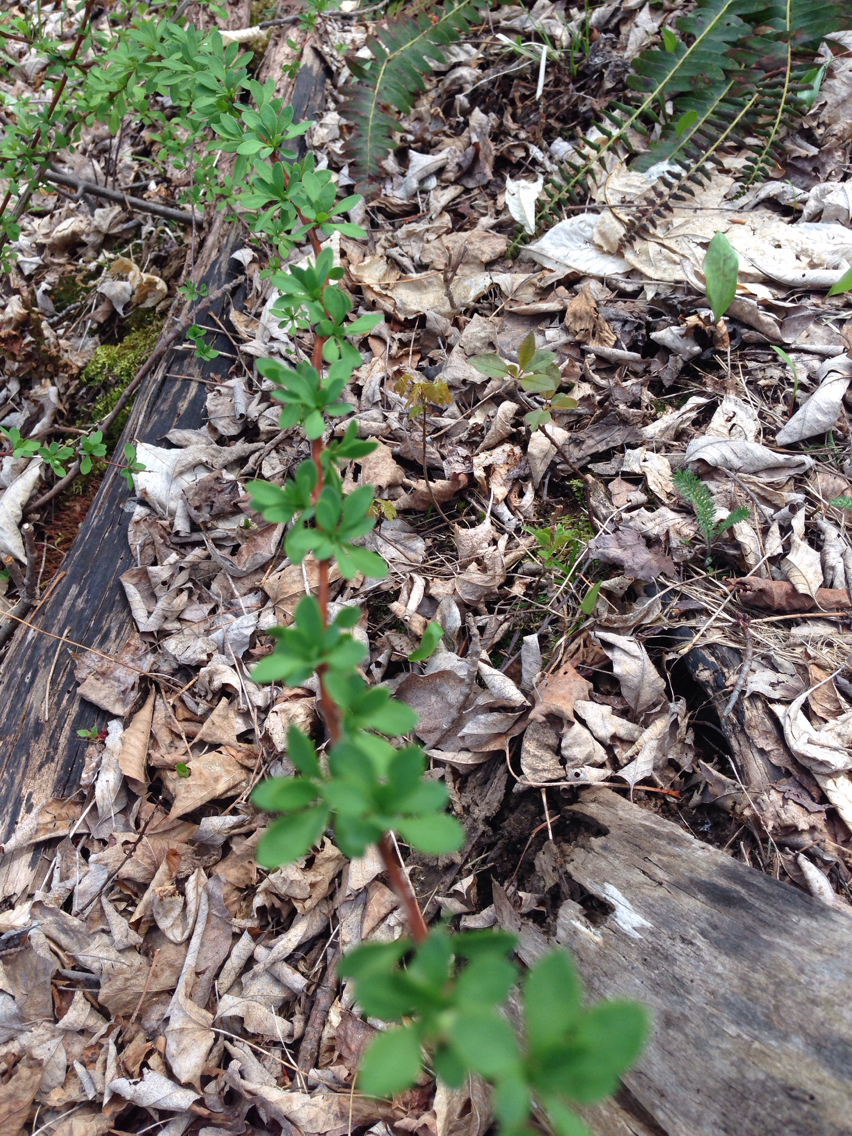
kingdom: Plantae
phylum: Tracheophyta
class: Magnoliopsida
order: Ranunculales
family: Berberidaceae
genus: Berberis
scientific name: Berberis thunbergii
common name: Japanese barberry
